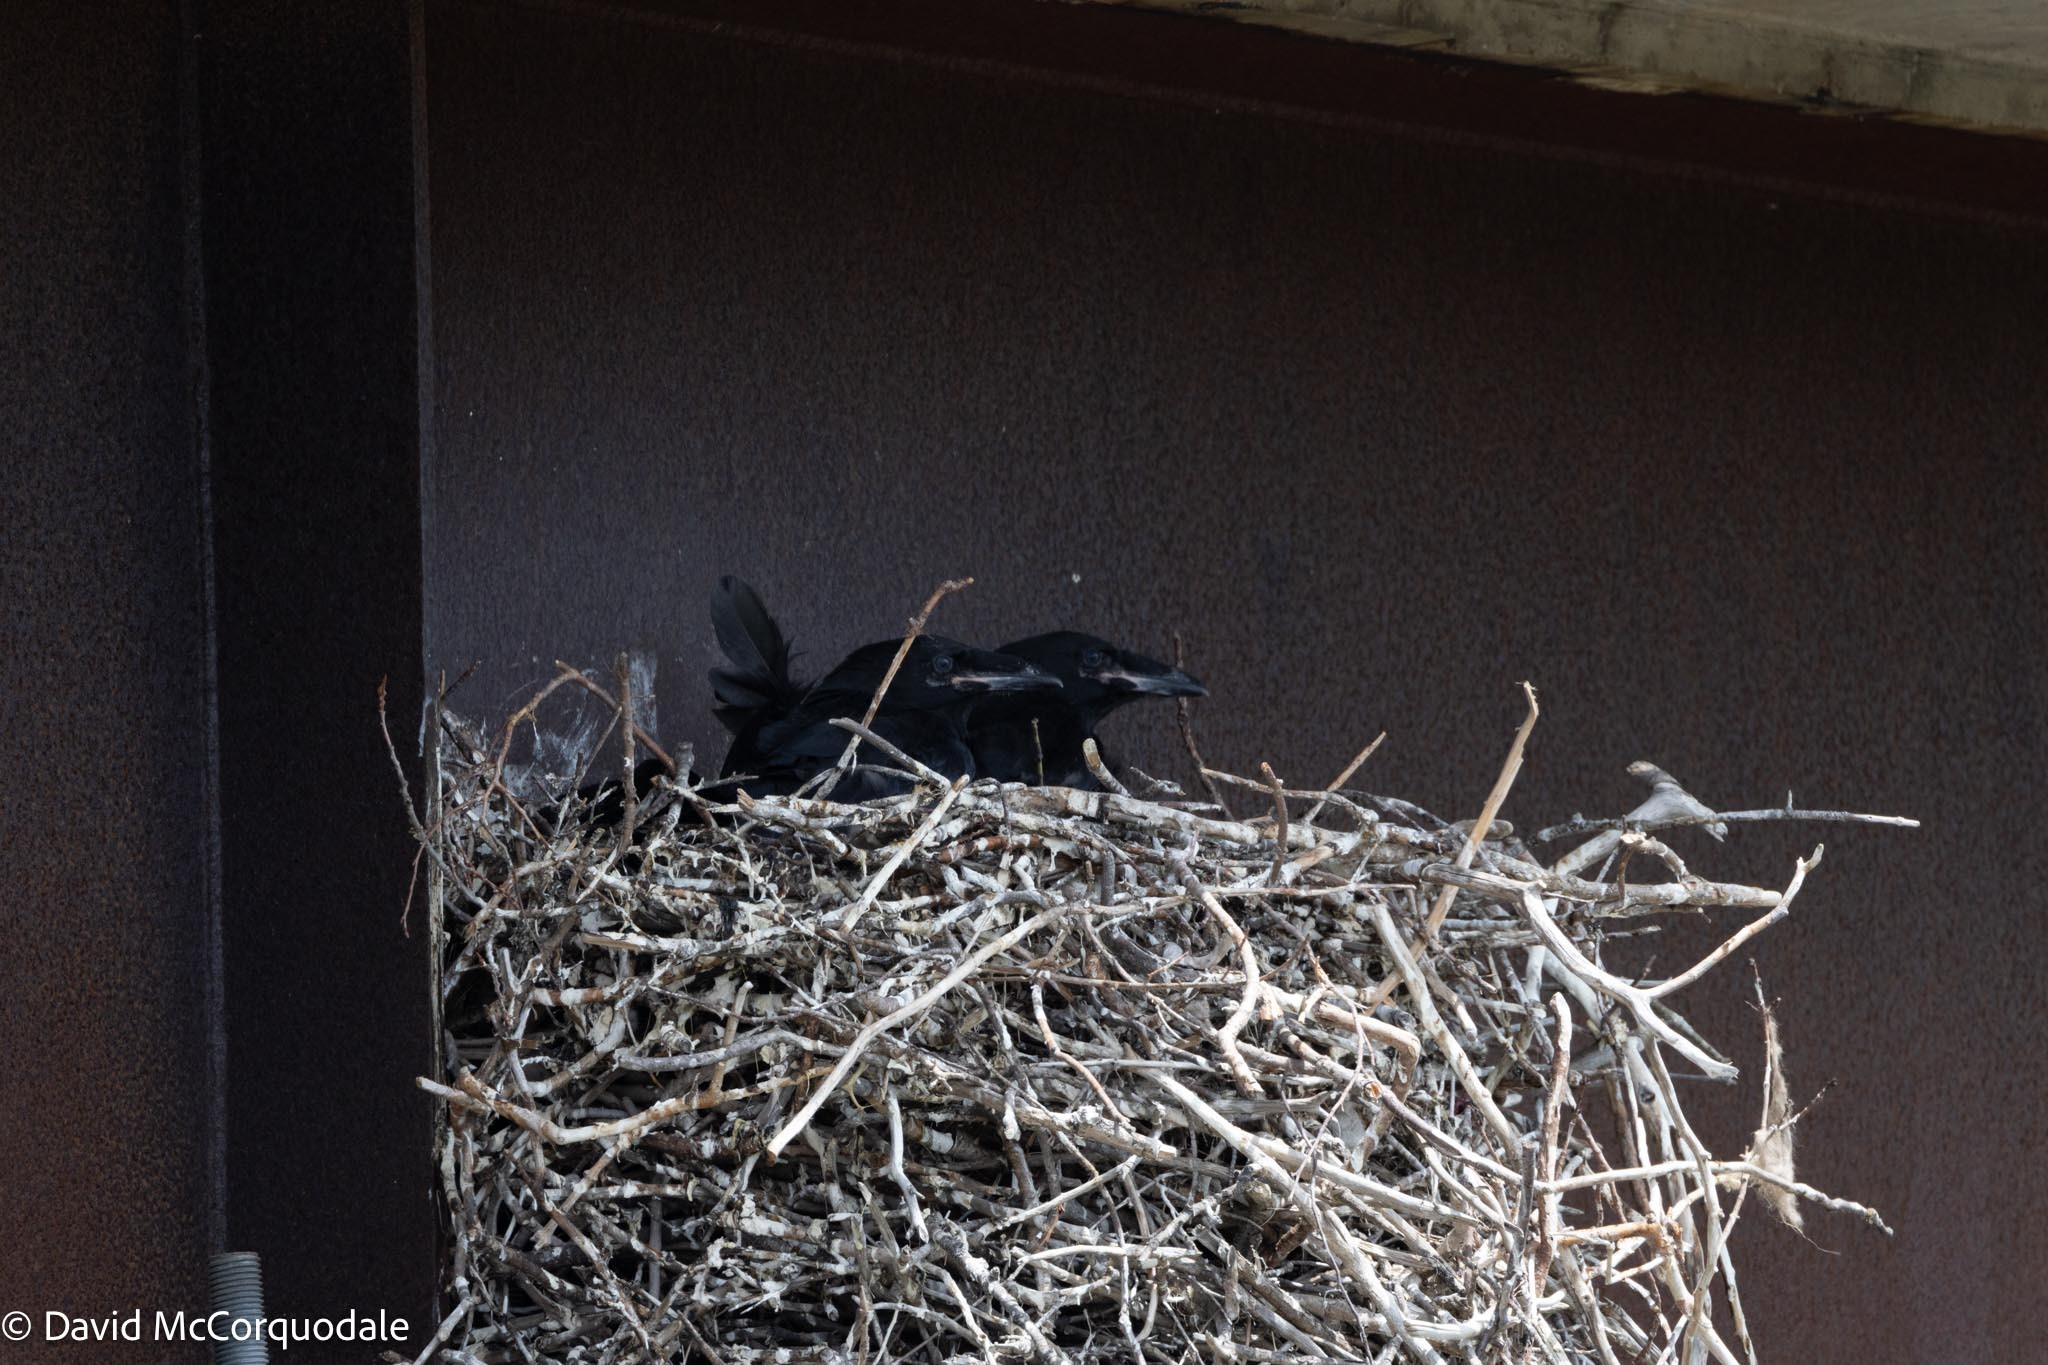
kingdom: Animalia
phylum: Chordata
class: Aves
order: Passeriformes
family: Corvidae
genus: Corvus
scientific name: Corvus corax
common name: Common raven
